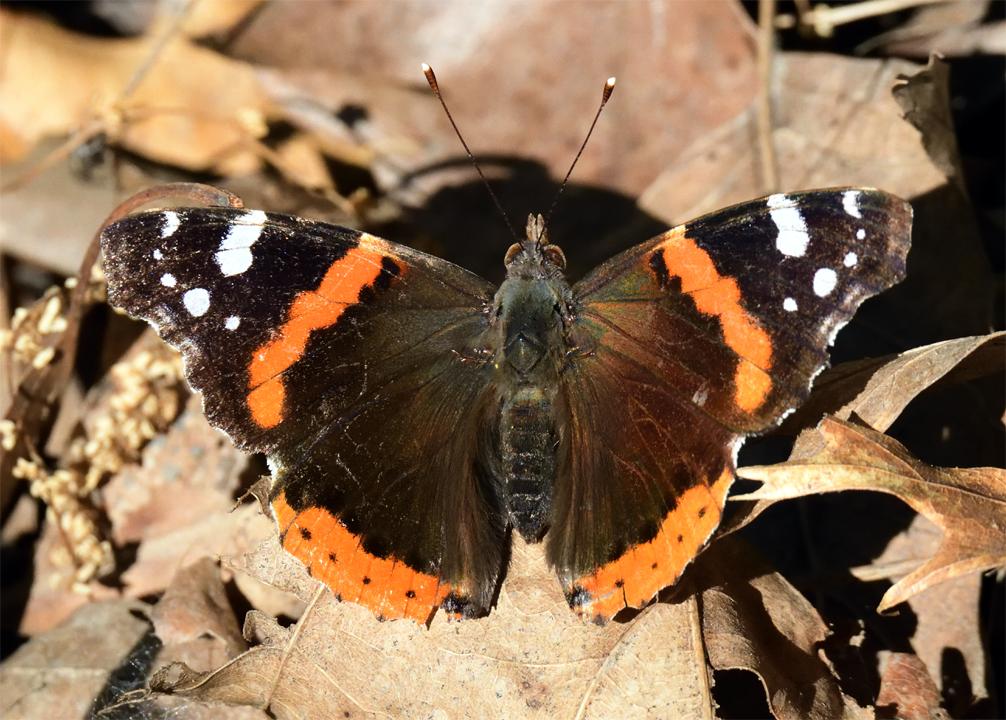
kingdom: Animalia
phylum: Arthropoda
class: Insecta
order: Lepidoptera
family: Nymphalidae
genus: Vanessa
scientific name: Vanessa atalanta
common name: Red admiral
